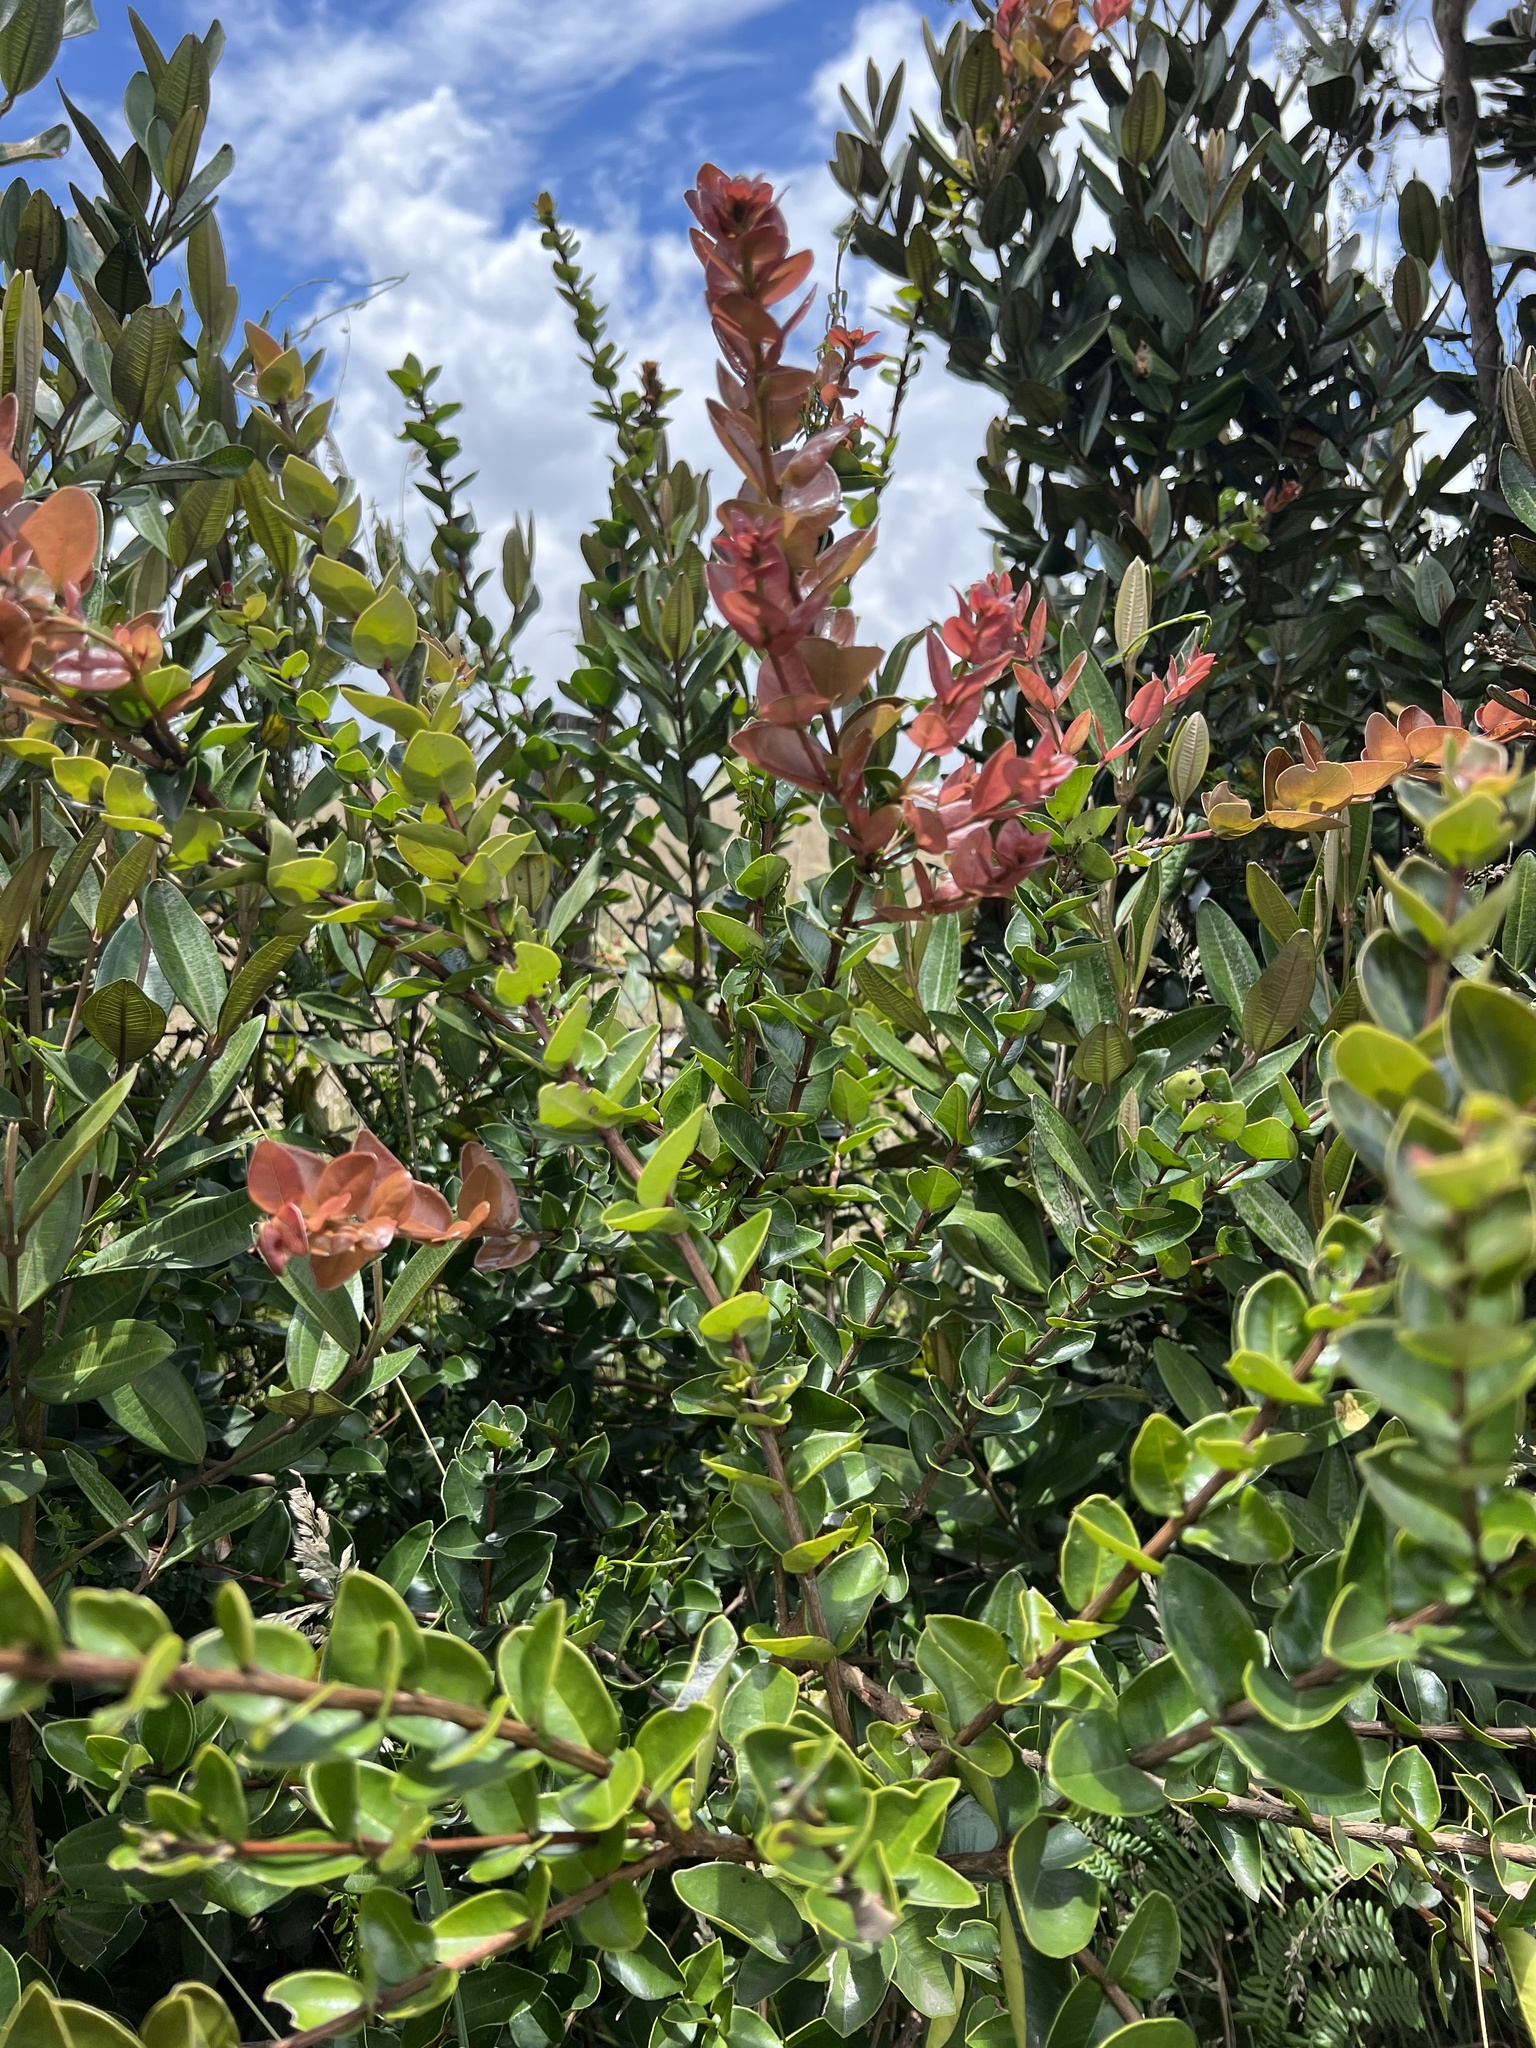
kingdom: Plantae
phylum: Tracheophyta
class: Magnoliopsida
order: Myrtales
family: Myrtaceae
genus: Myrcianthes
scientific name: Myrcianthes leucoxyla
